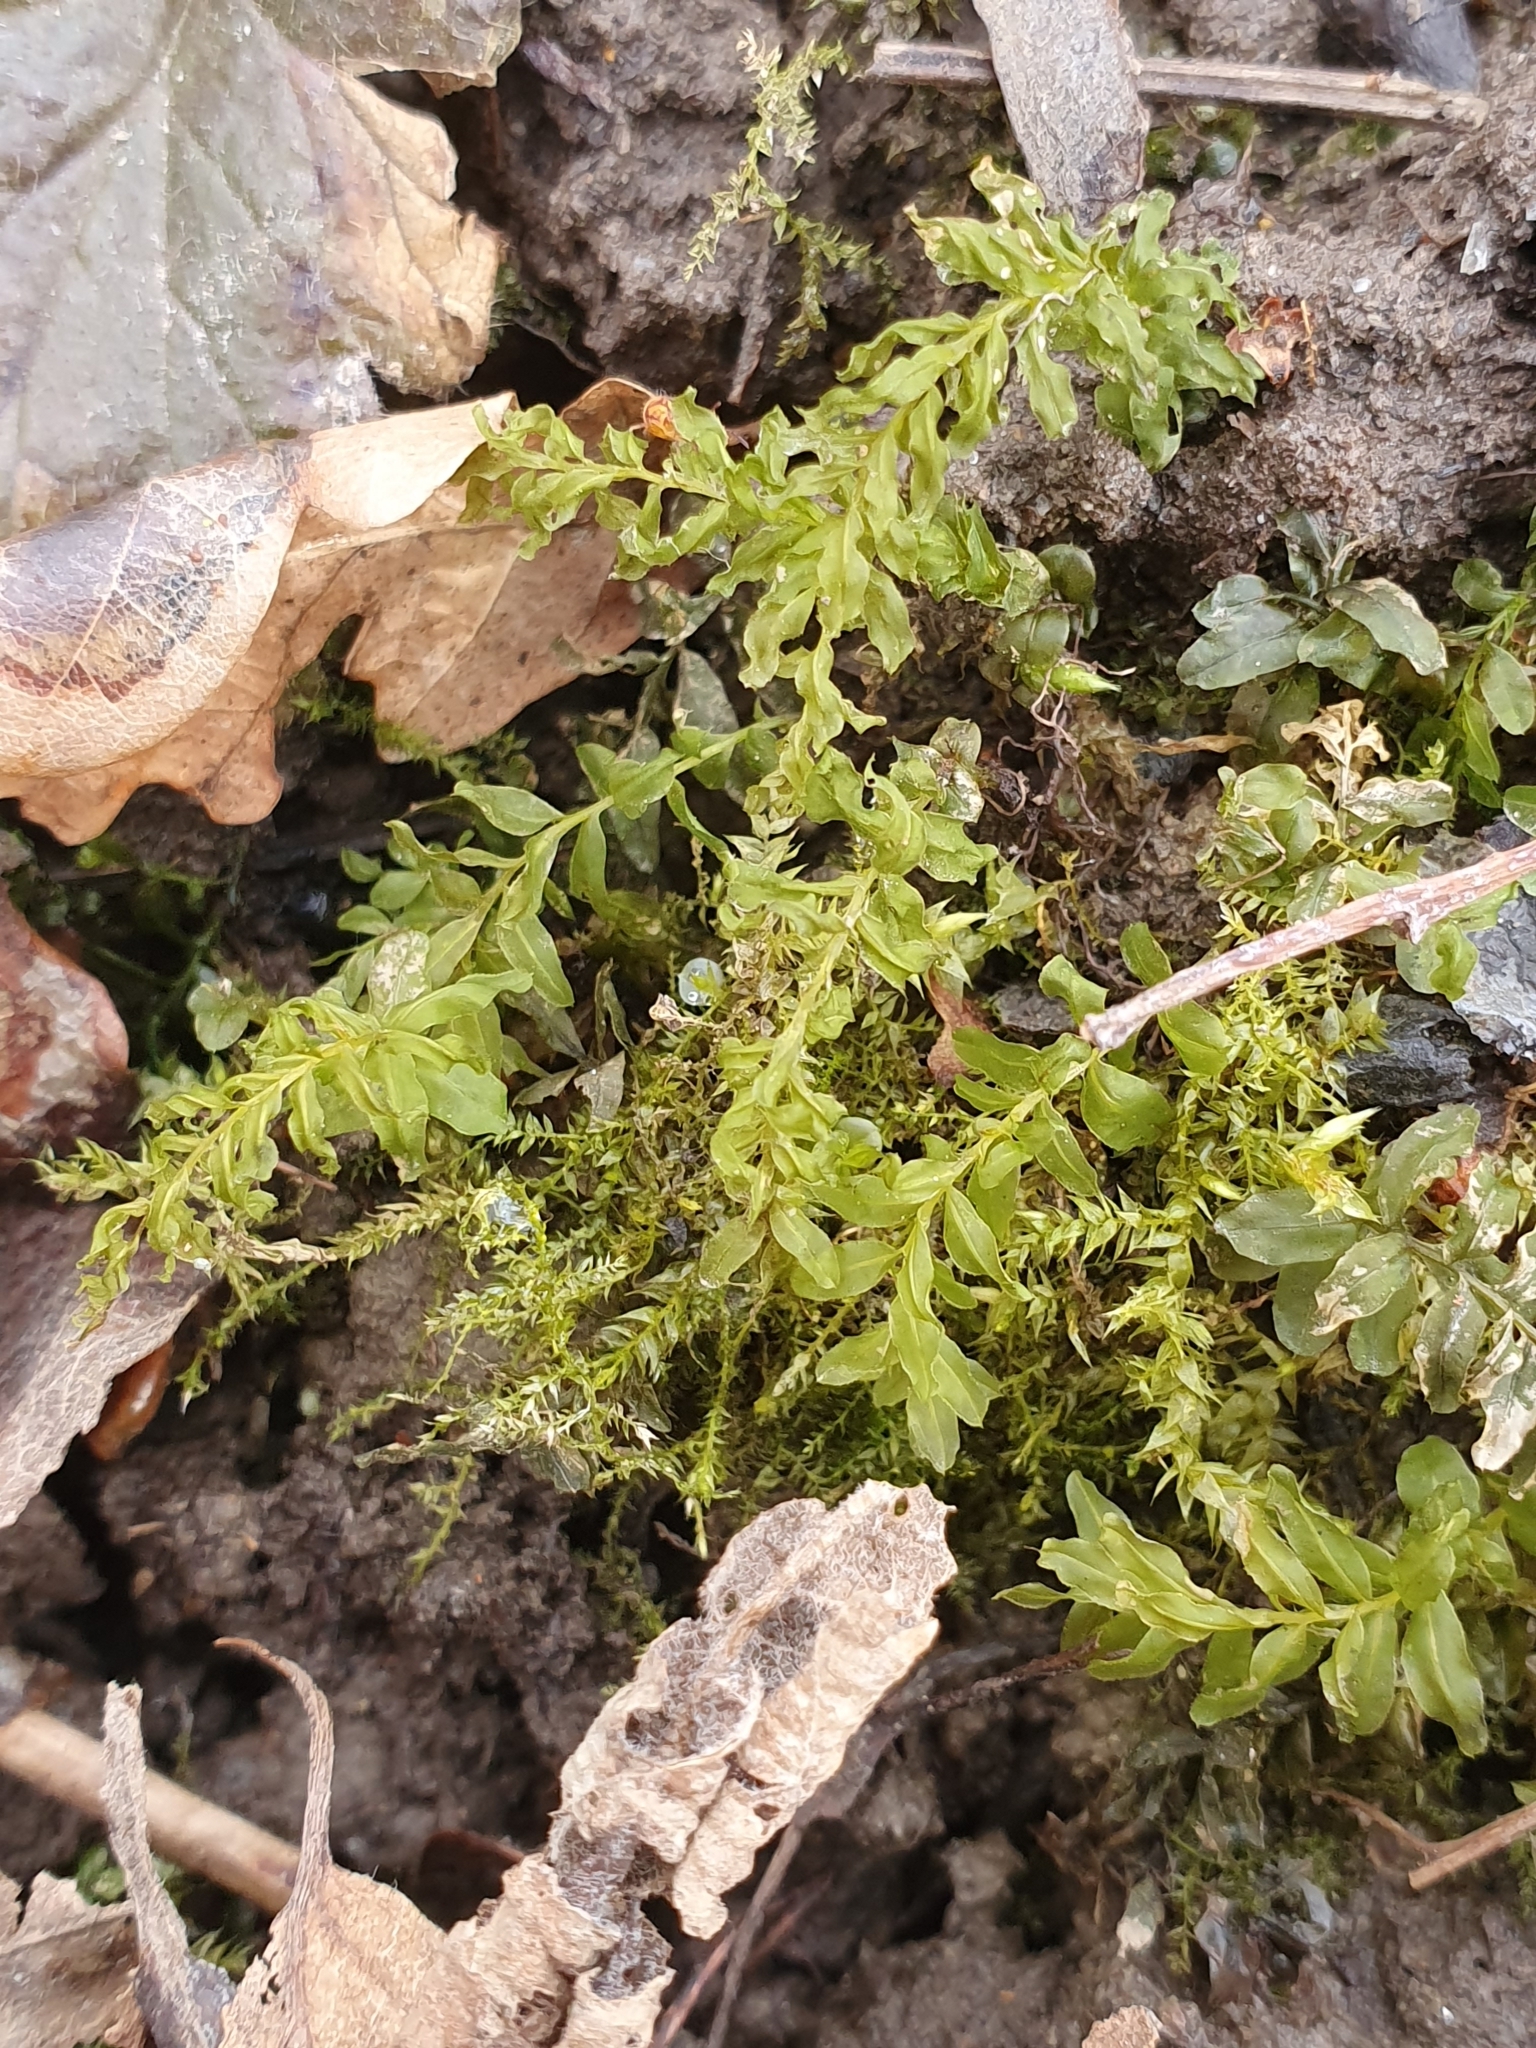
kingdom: Plantae
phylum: Bryophyta
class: Bryopsida
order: Bryales
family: Mniaceae
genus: Plagiomnium
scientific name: Plagiomnium undulatum
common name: Hart's-tongue thyme-moss
